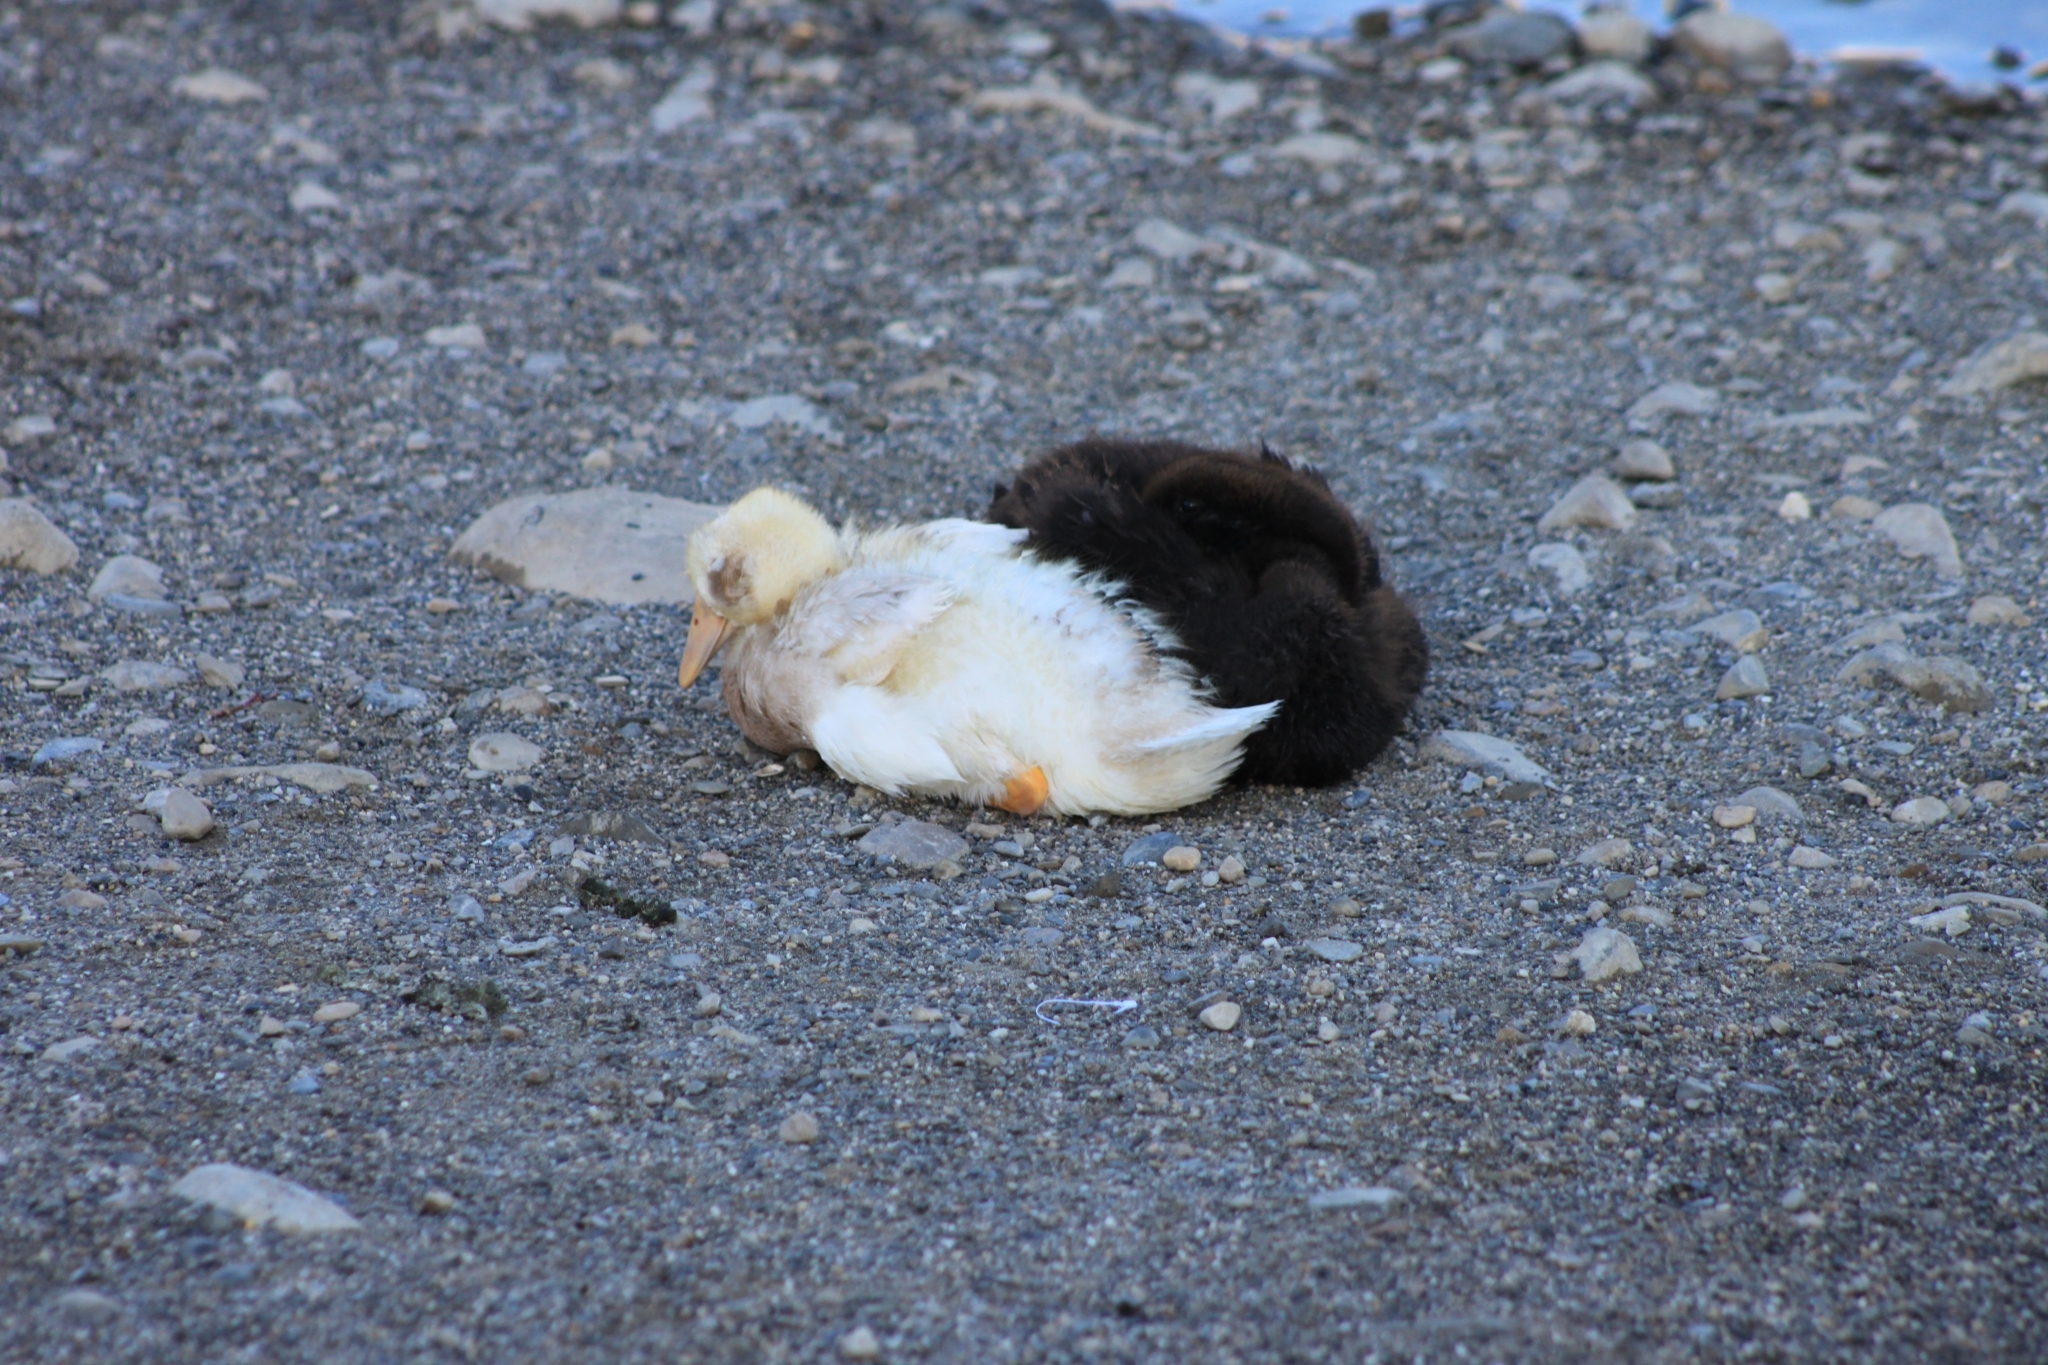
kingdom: Animalia
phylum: Chordata
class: Aves
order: Anseriformes
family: Anatidae
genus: Anas
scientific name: Anas platyrhynchos
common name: Mallard
